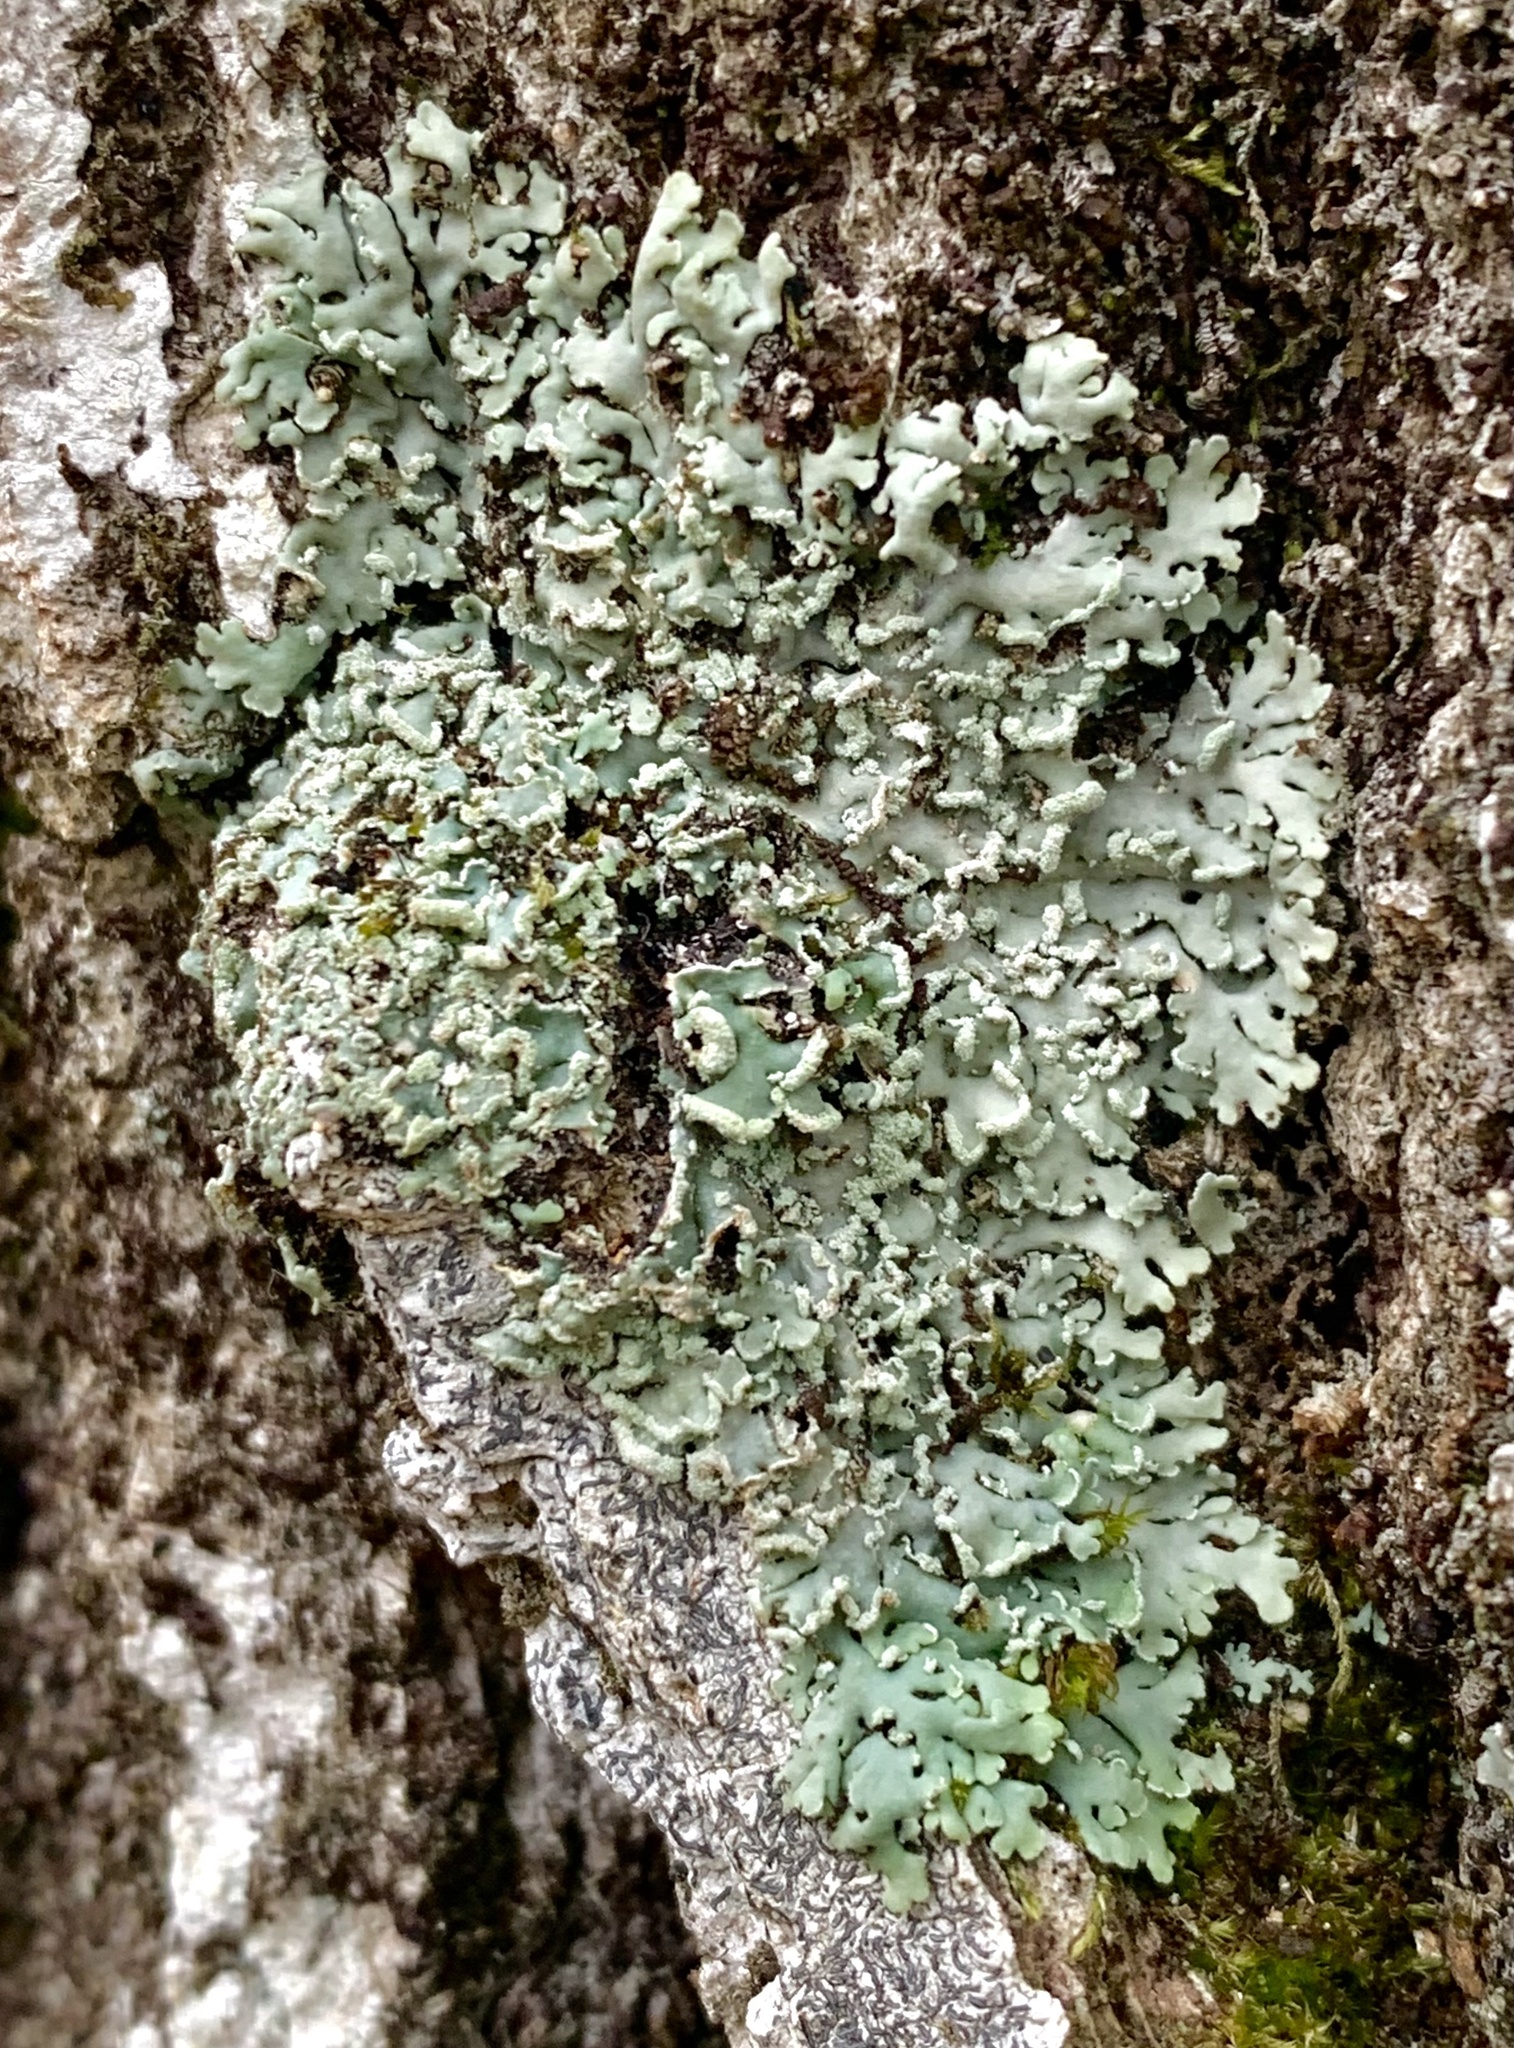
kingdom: Fungi
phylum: Ascomycota
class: Lecanoromycetes
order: Caliciales
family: Physciaceae
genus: Heterodermia
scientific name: Heterodermia obscurata
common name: Coralloid rosette-lichen
